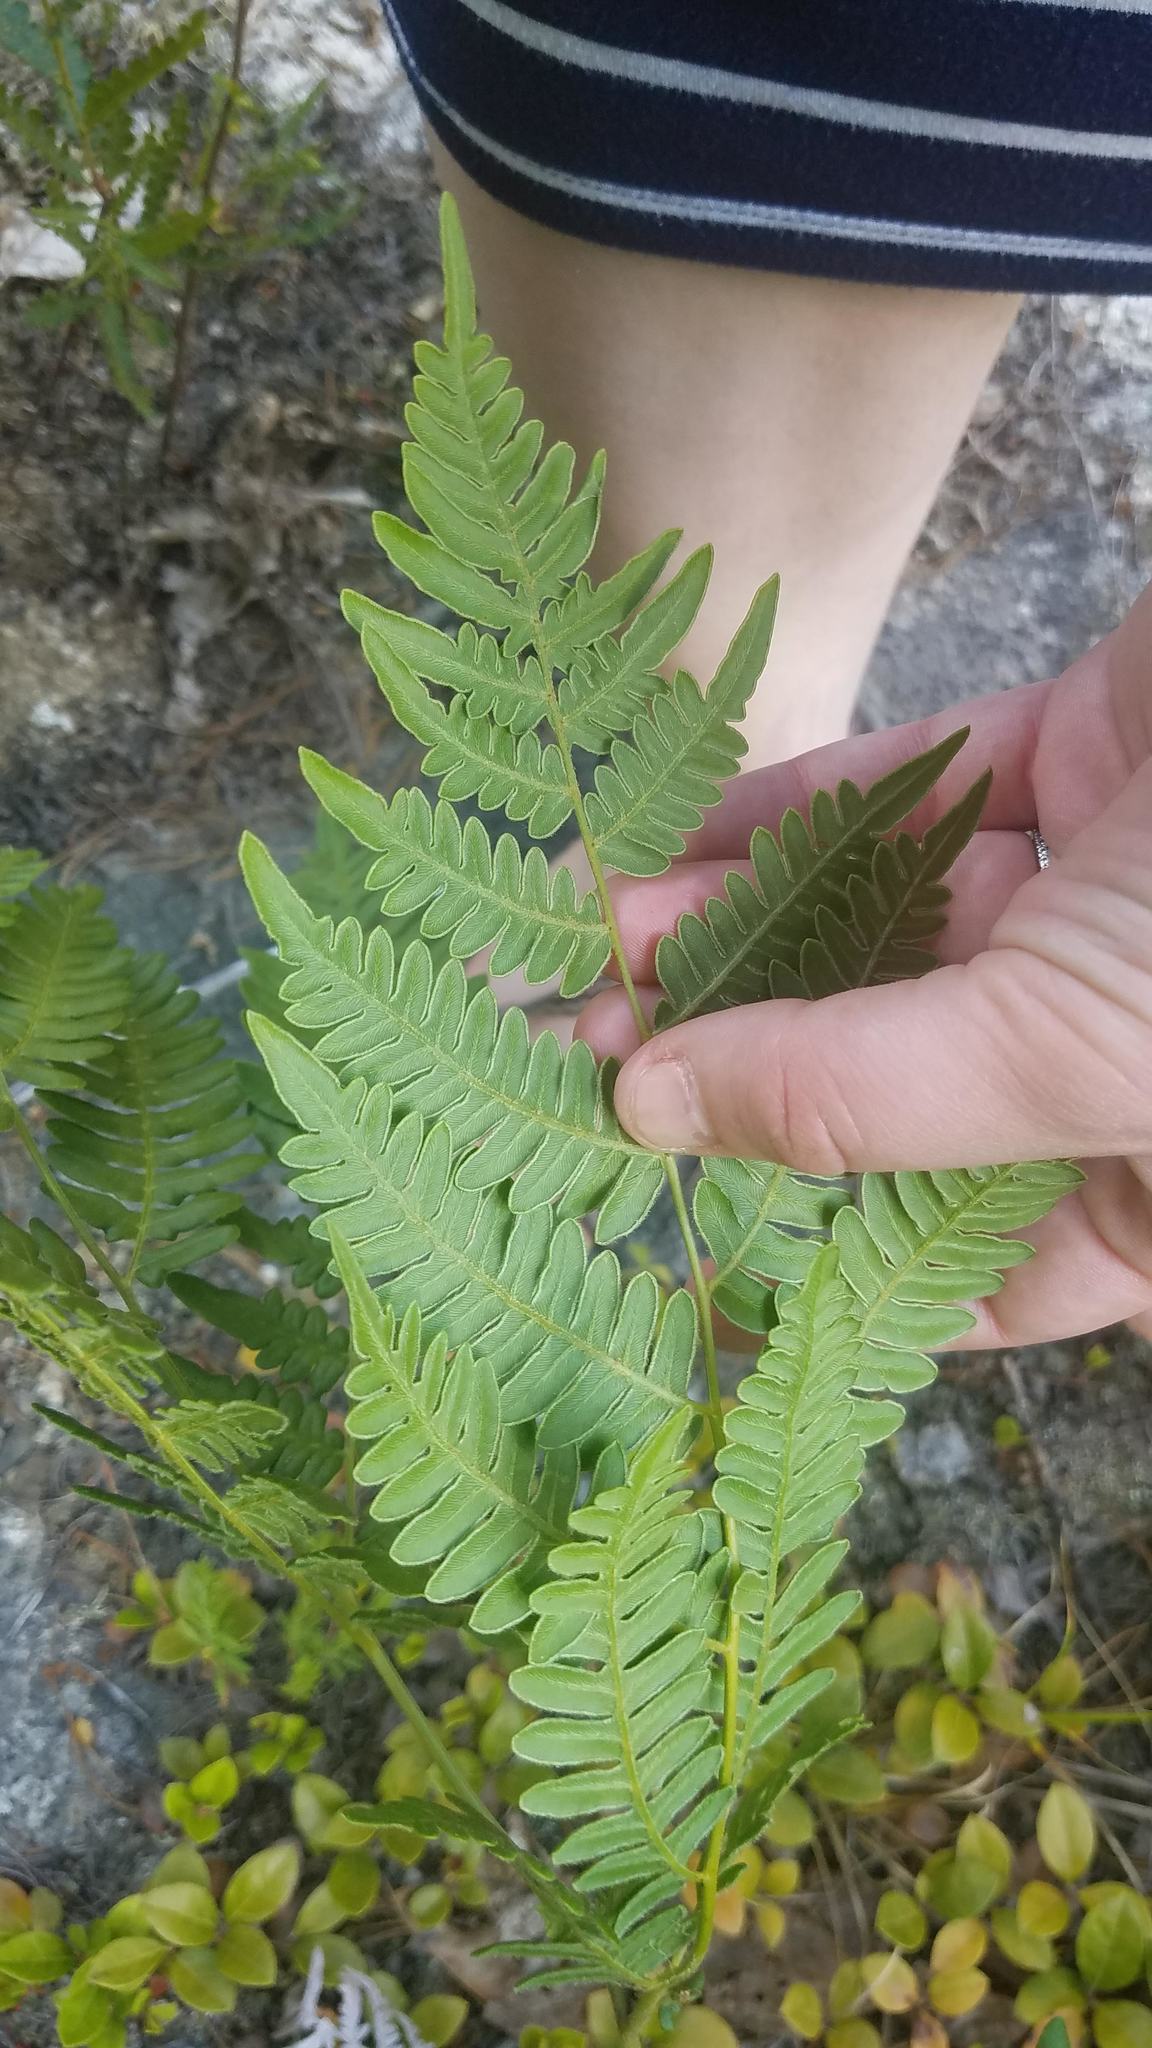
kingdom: Plantae
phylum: Tracheophyta
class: Polypodiopsida
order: Polypodiales
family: Dennstaedtiaceae
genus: Pteridium
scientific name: Pteridium aquilinum
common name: Bracken
